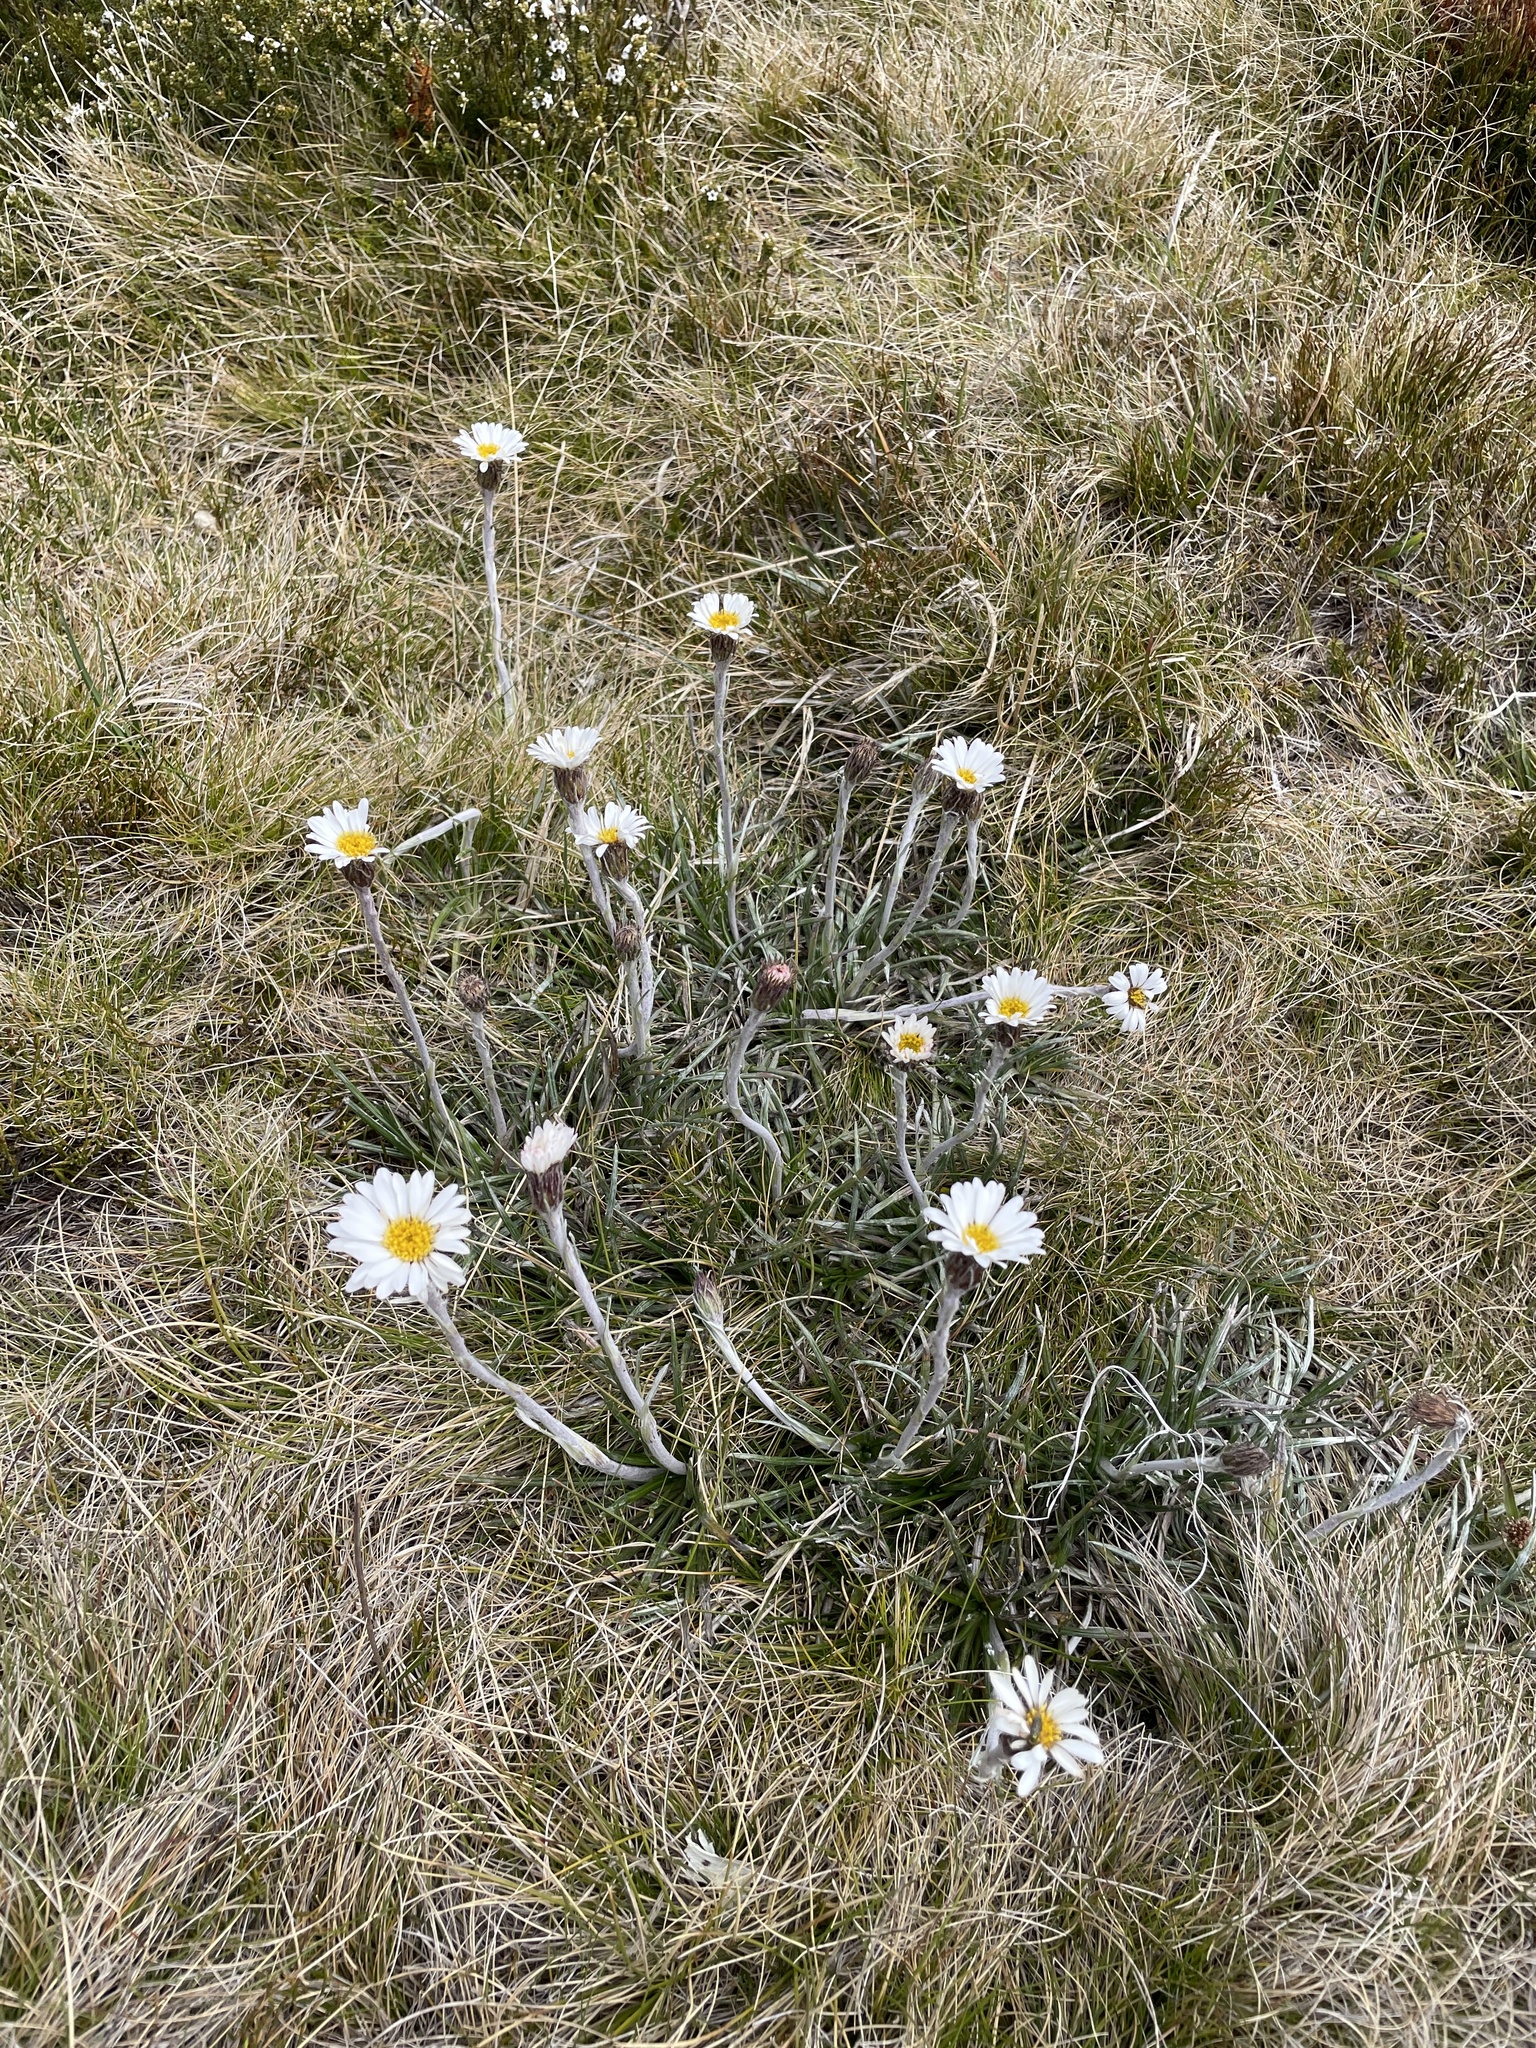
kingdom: Plantae
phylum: Tracheophyta
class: Magnoliopsida
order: Asterales
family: Asteraceae
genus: Celmisia
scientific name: Celmisia costiniana
